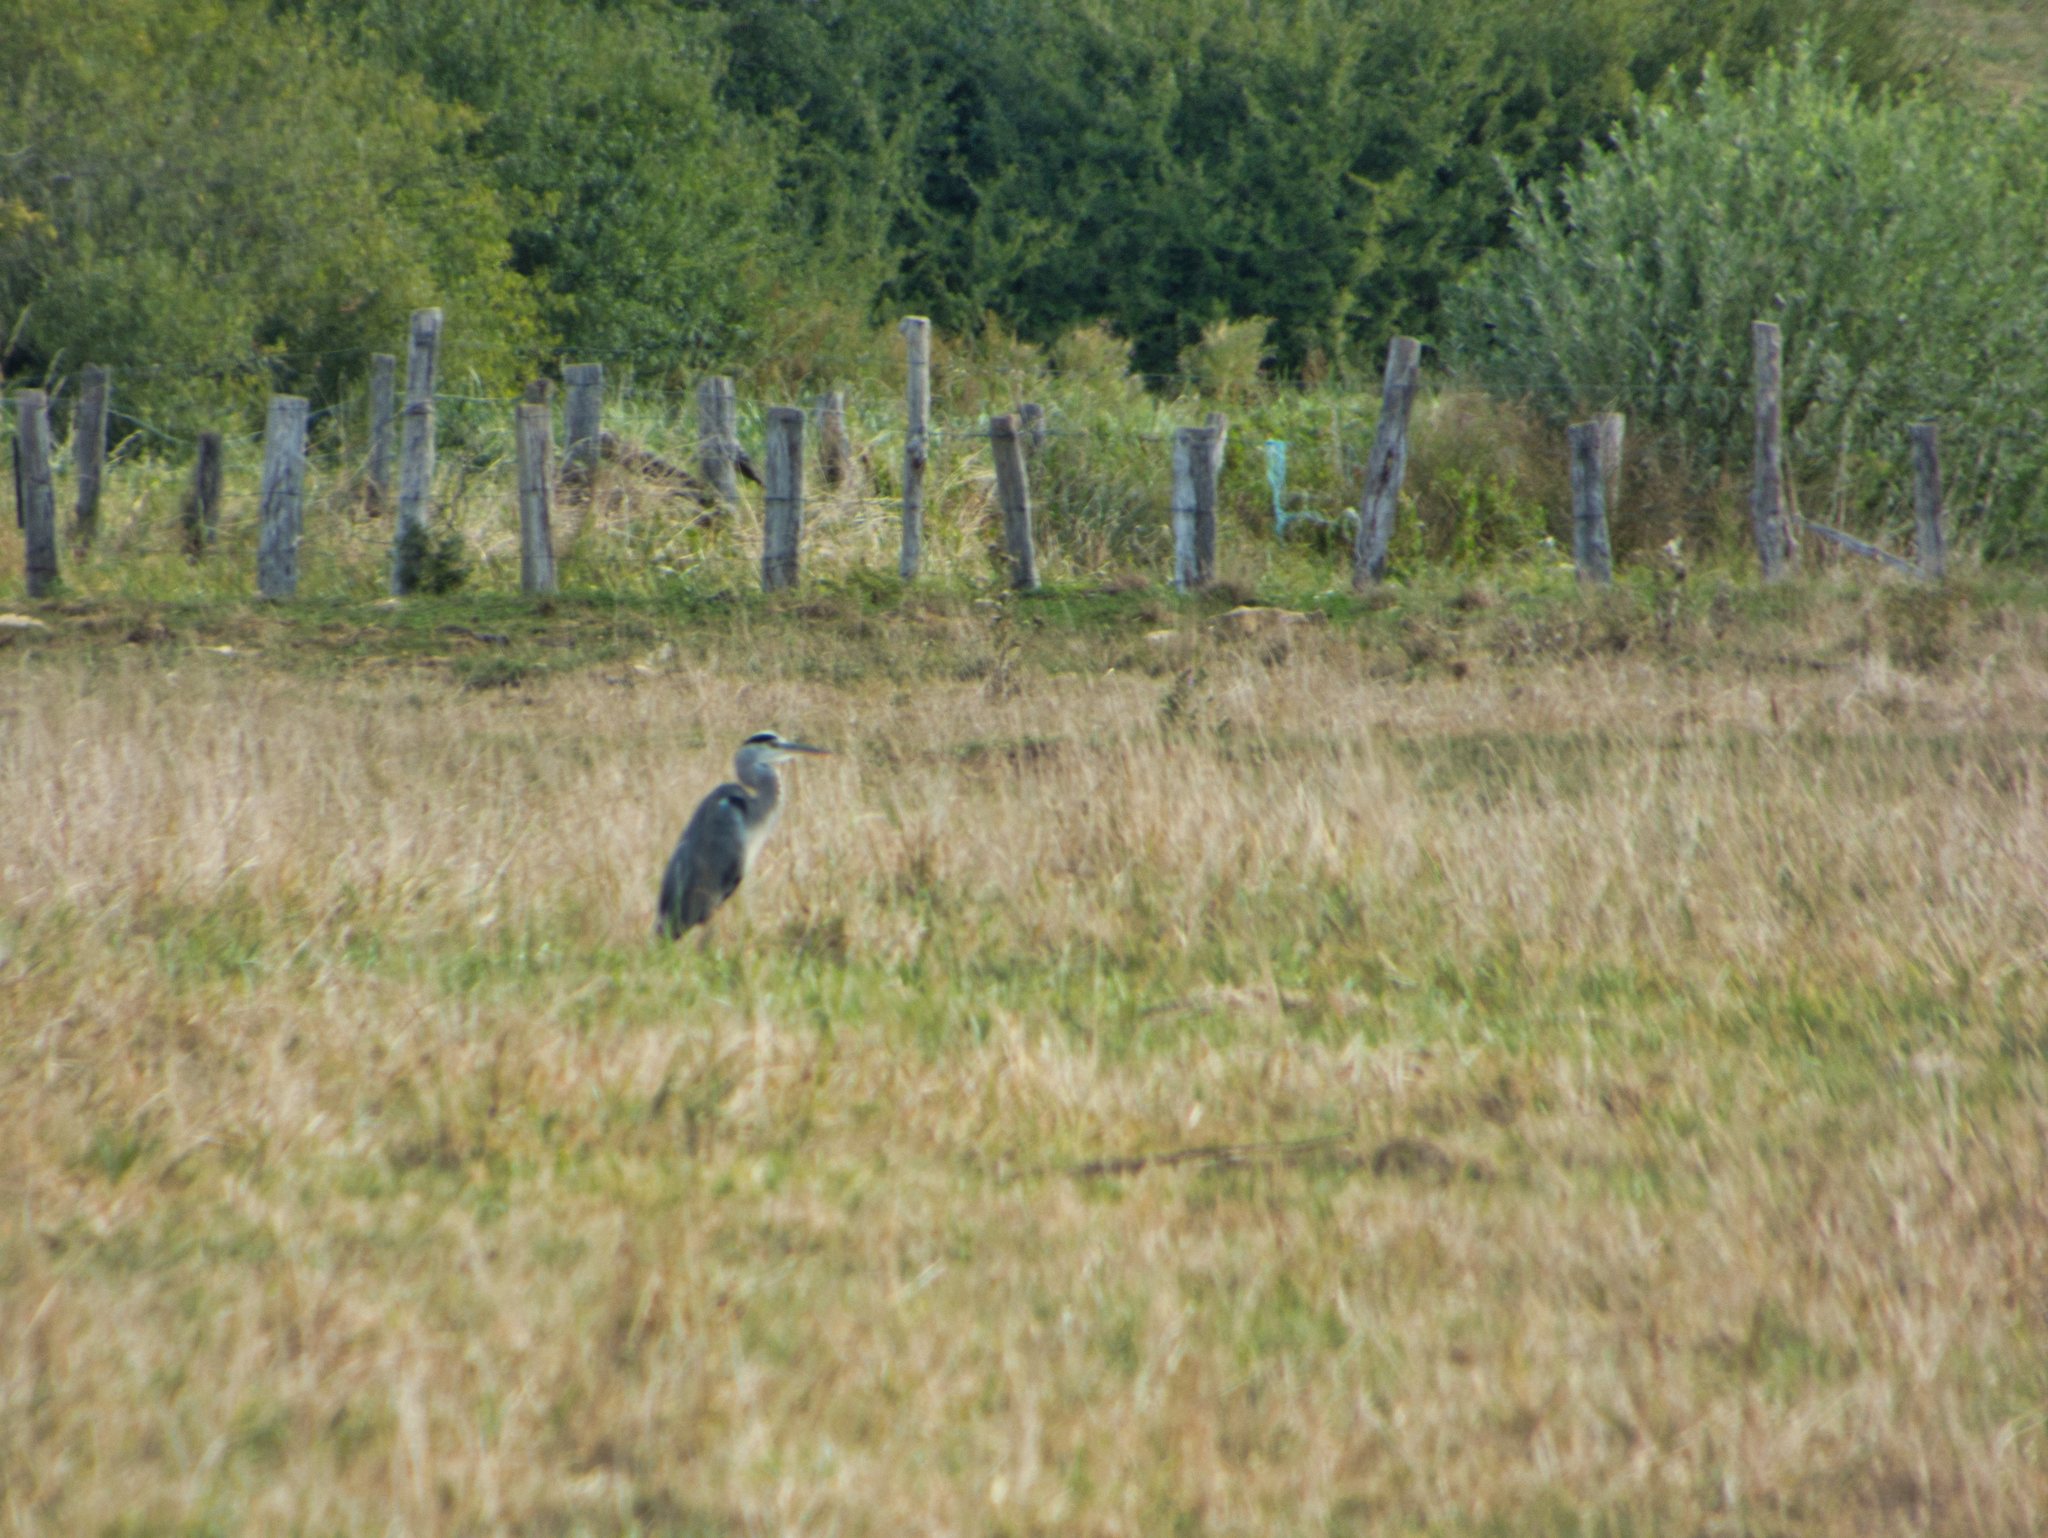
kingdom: Animalia
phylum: Chordata
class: Aves
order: Pelecaniformes
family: Ardeidae
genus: Ardea
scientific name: Ardea cinerea
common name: Grey heron
